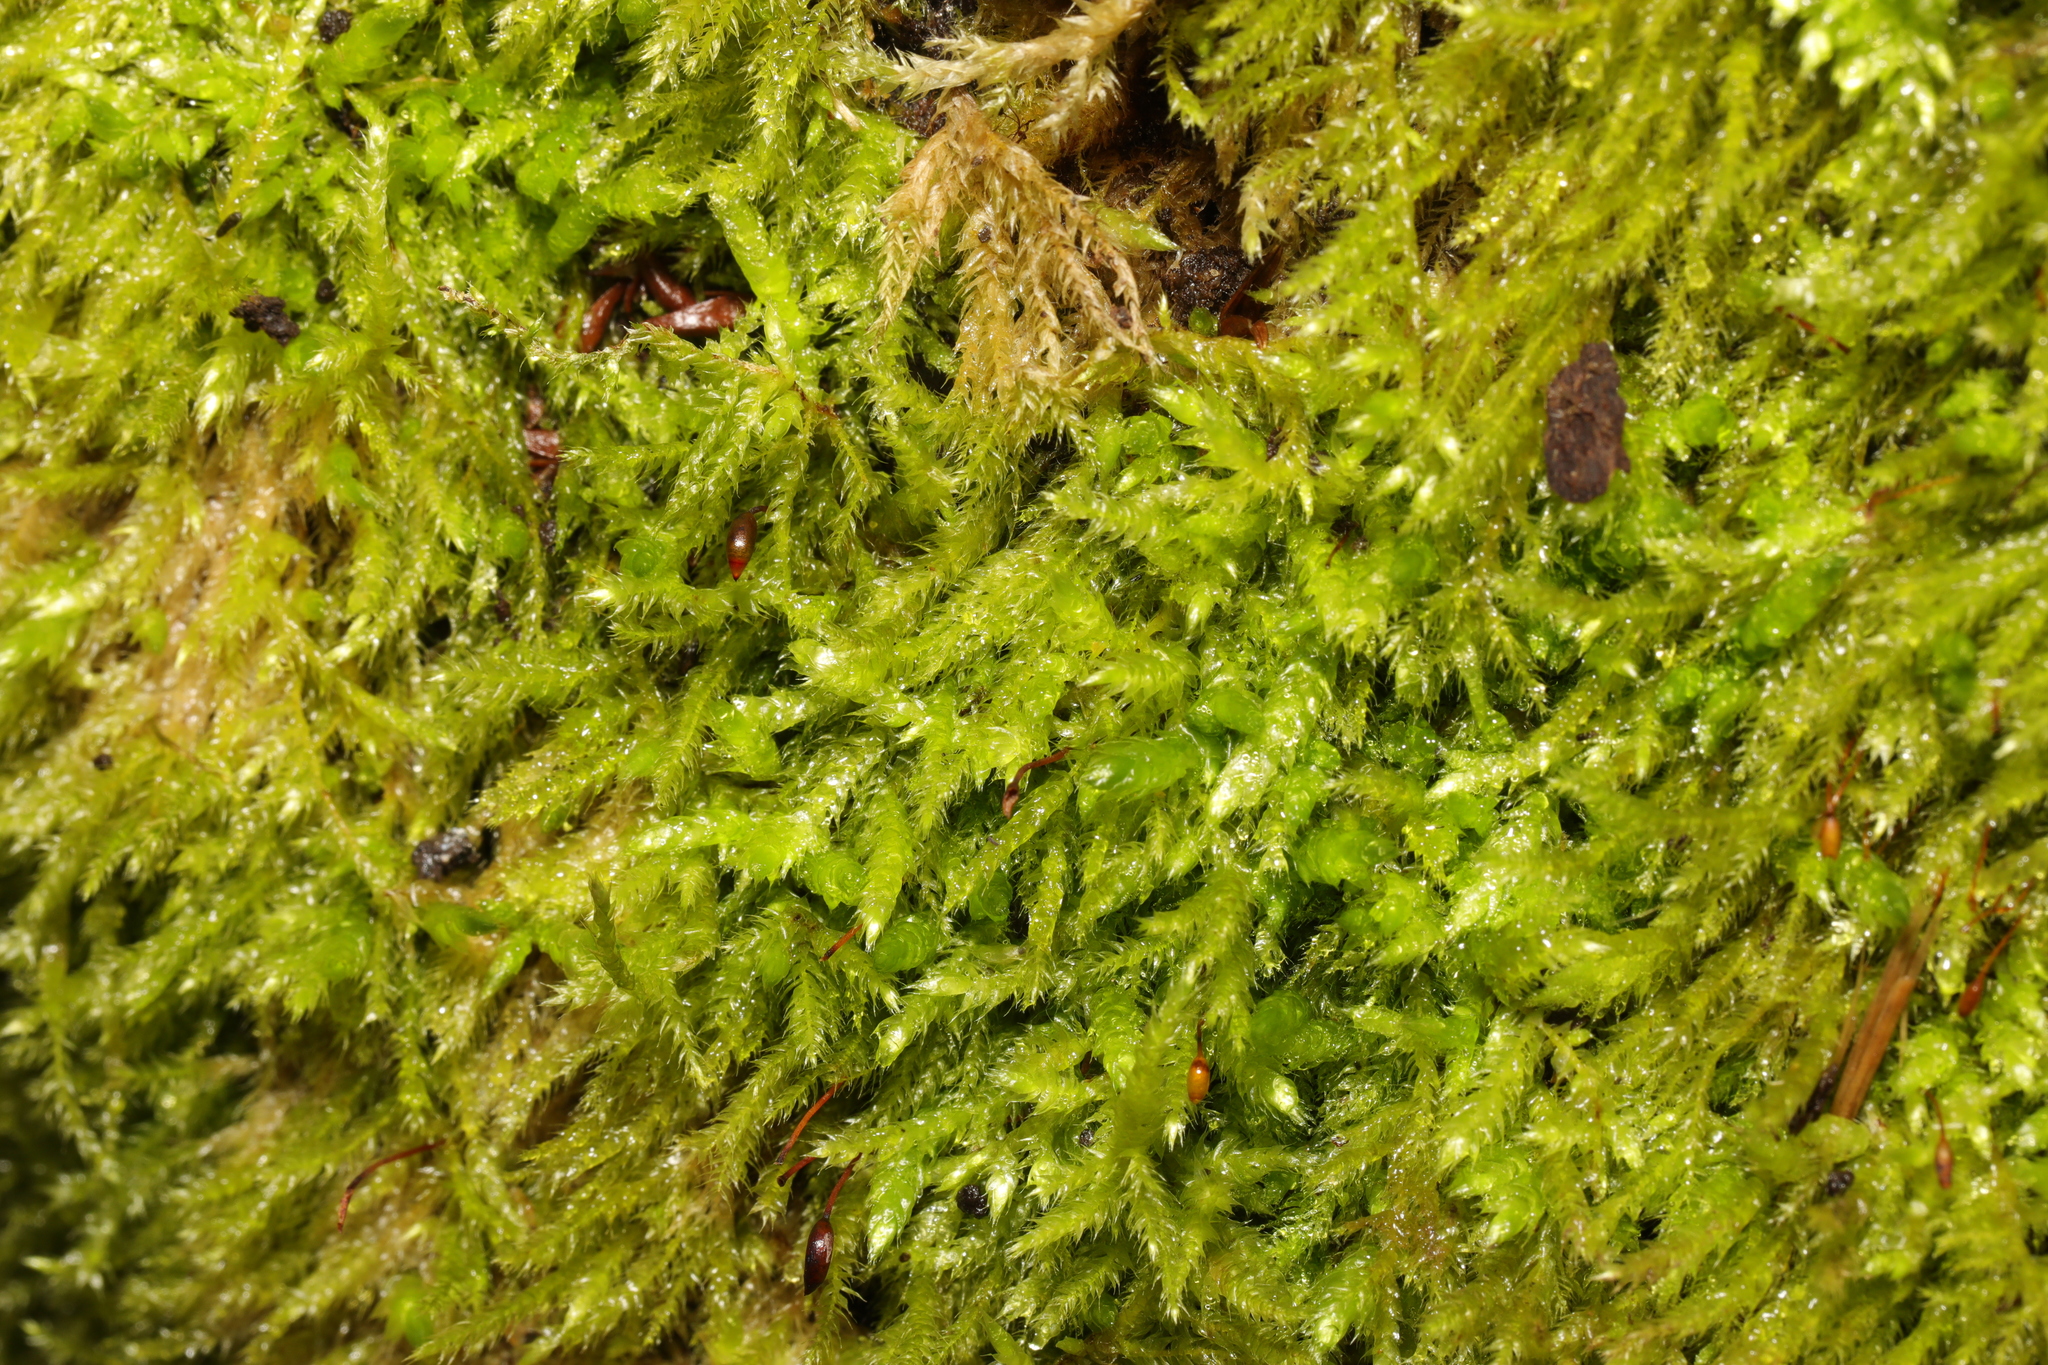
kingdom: Plantae
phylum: Bryophyta
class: Bryopsida
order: Hypnales
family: Brachytheciaceae
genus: Eurhynchium
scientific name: Eurhynchium striatum
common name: Common striated feather-moss
